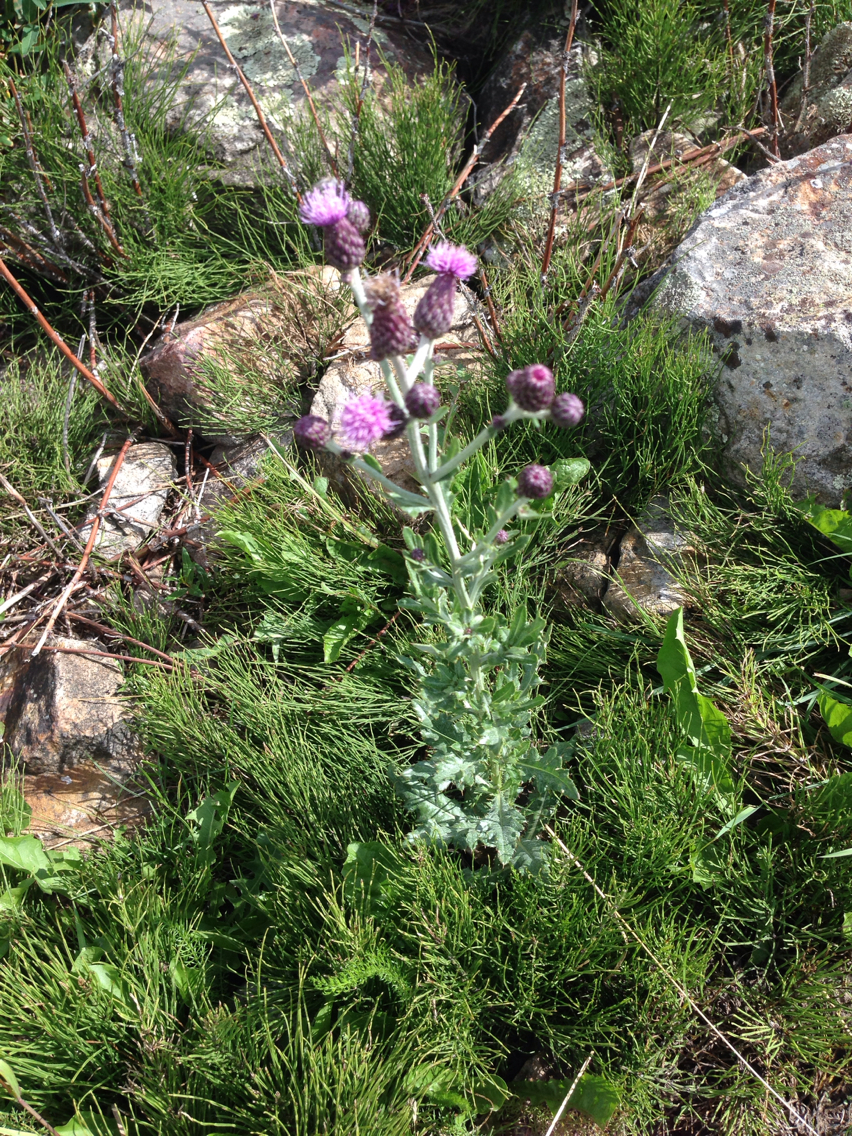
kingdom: Plantae
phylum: Tracheophyta
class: Magnoliopsida
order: Asterales
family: Asteraceae
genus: Cirsium
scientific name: Cirsium arvense
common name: Creeping thistle
